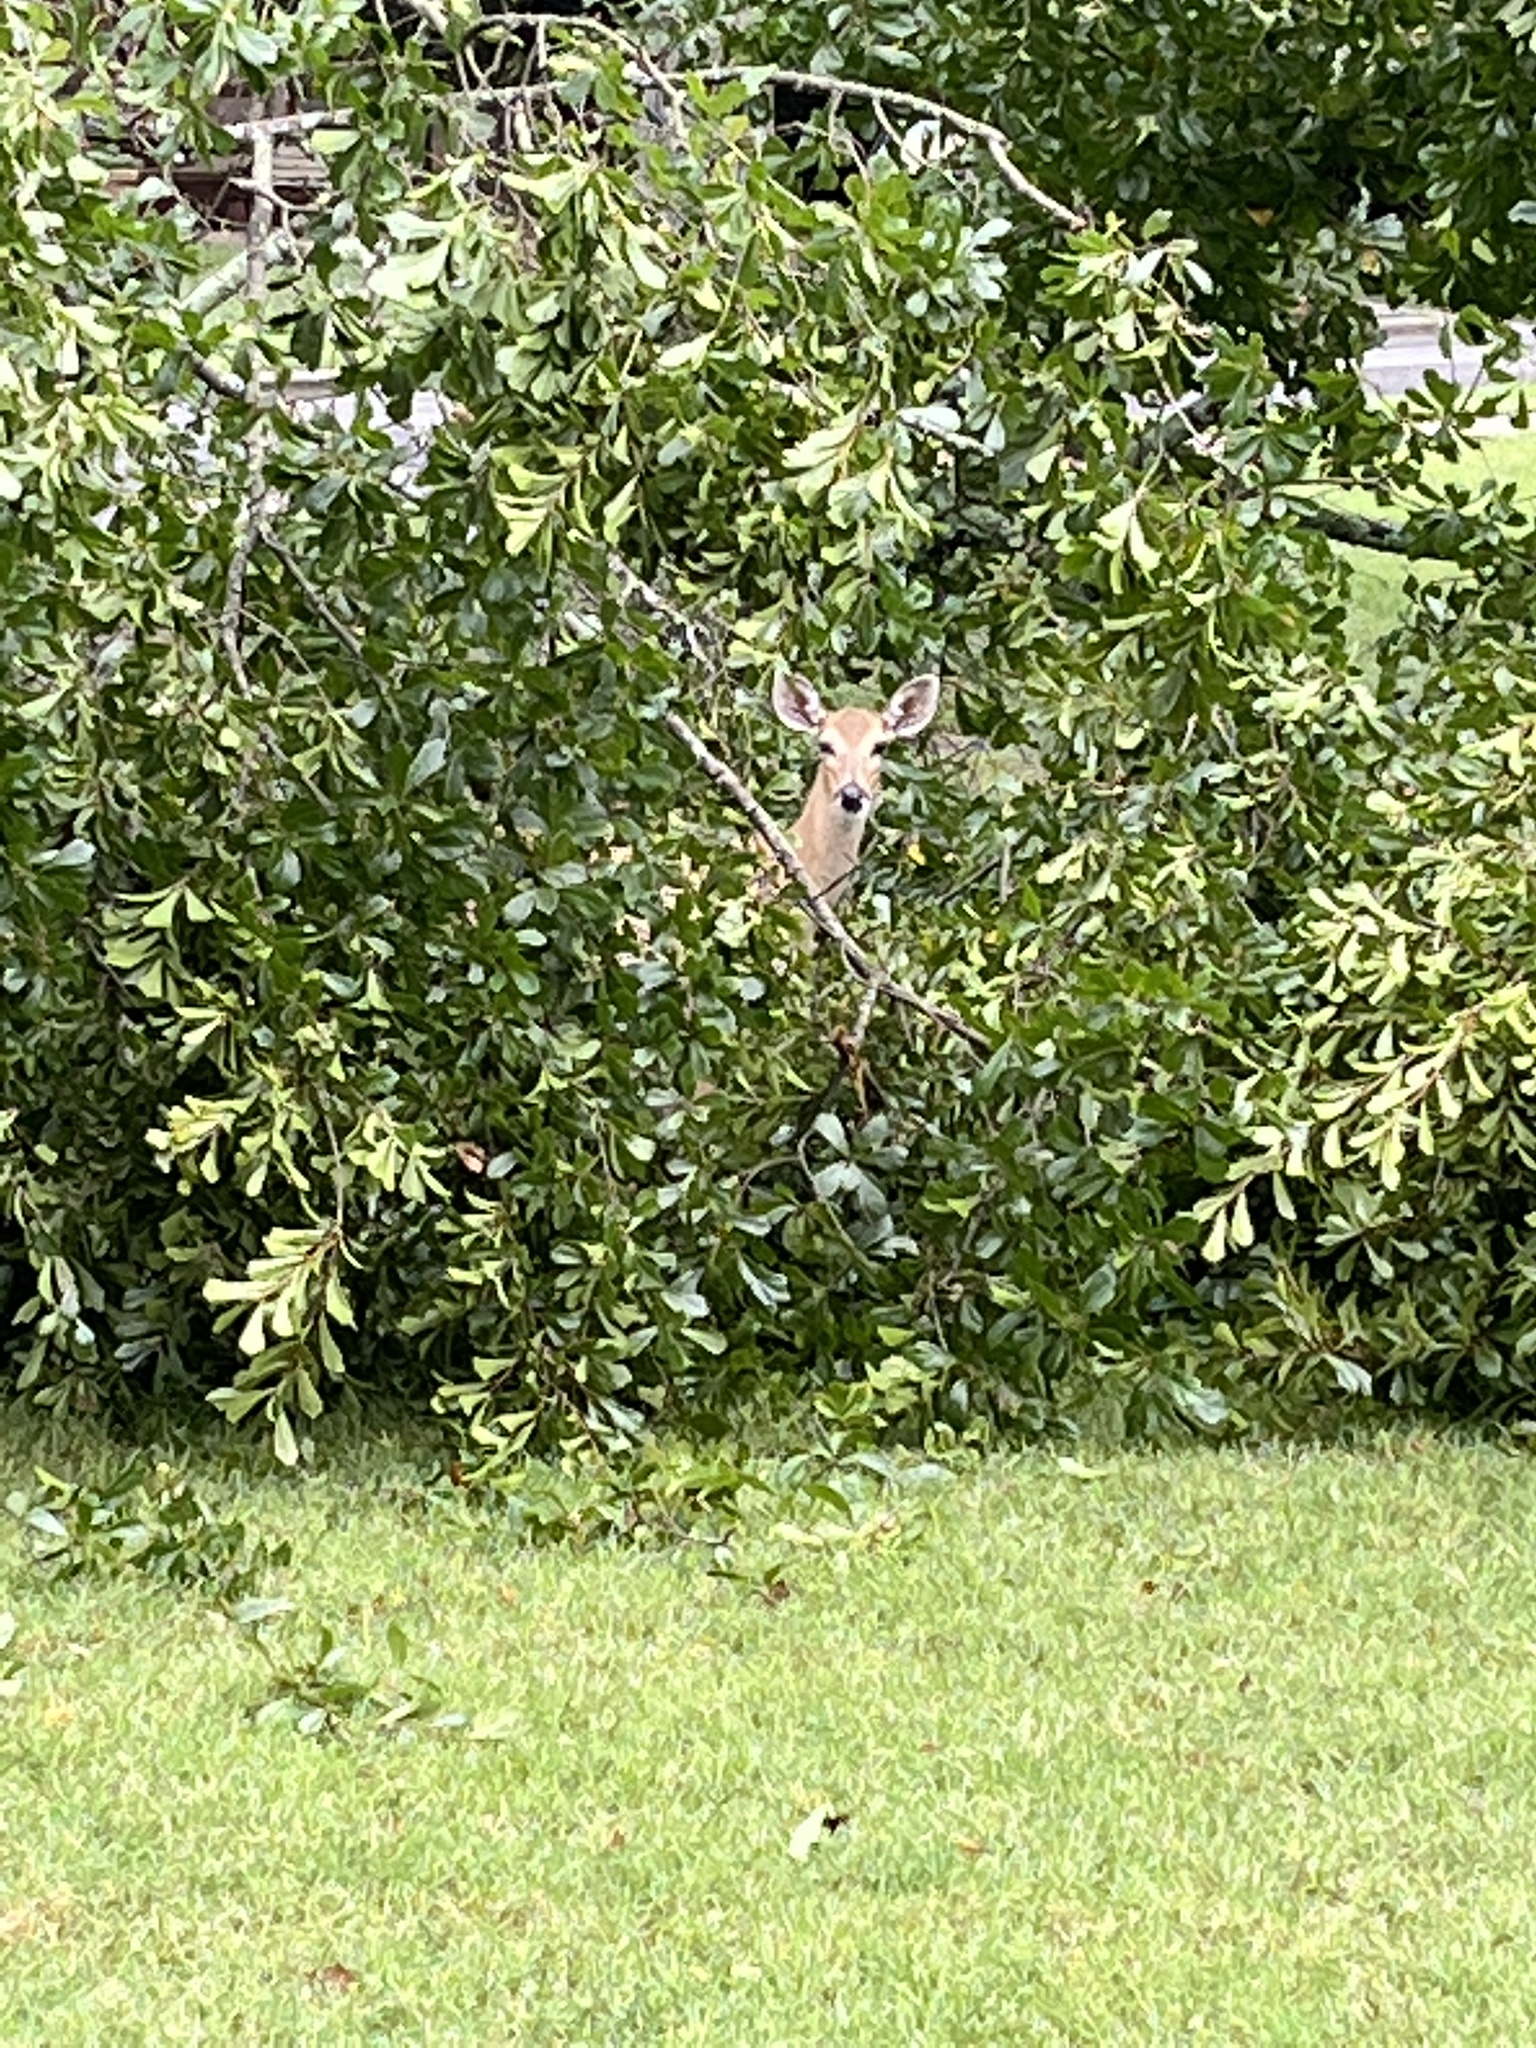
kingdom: Animalia
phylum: Chordata
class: Mammalia
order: Artiodactyla
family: Cervidae
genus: Odocoileus
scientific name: Odocoileus virginianus
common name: White-tailed deer
